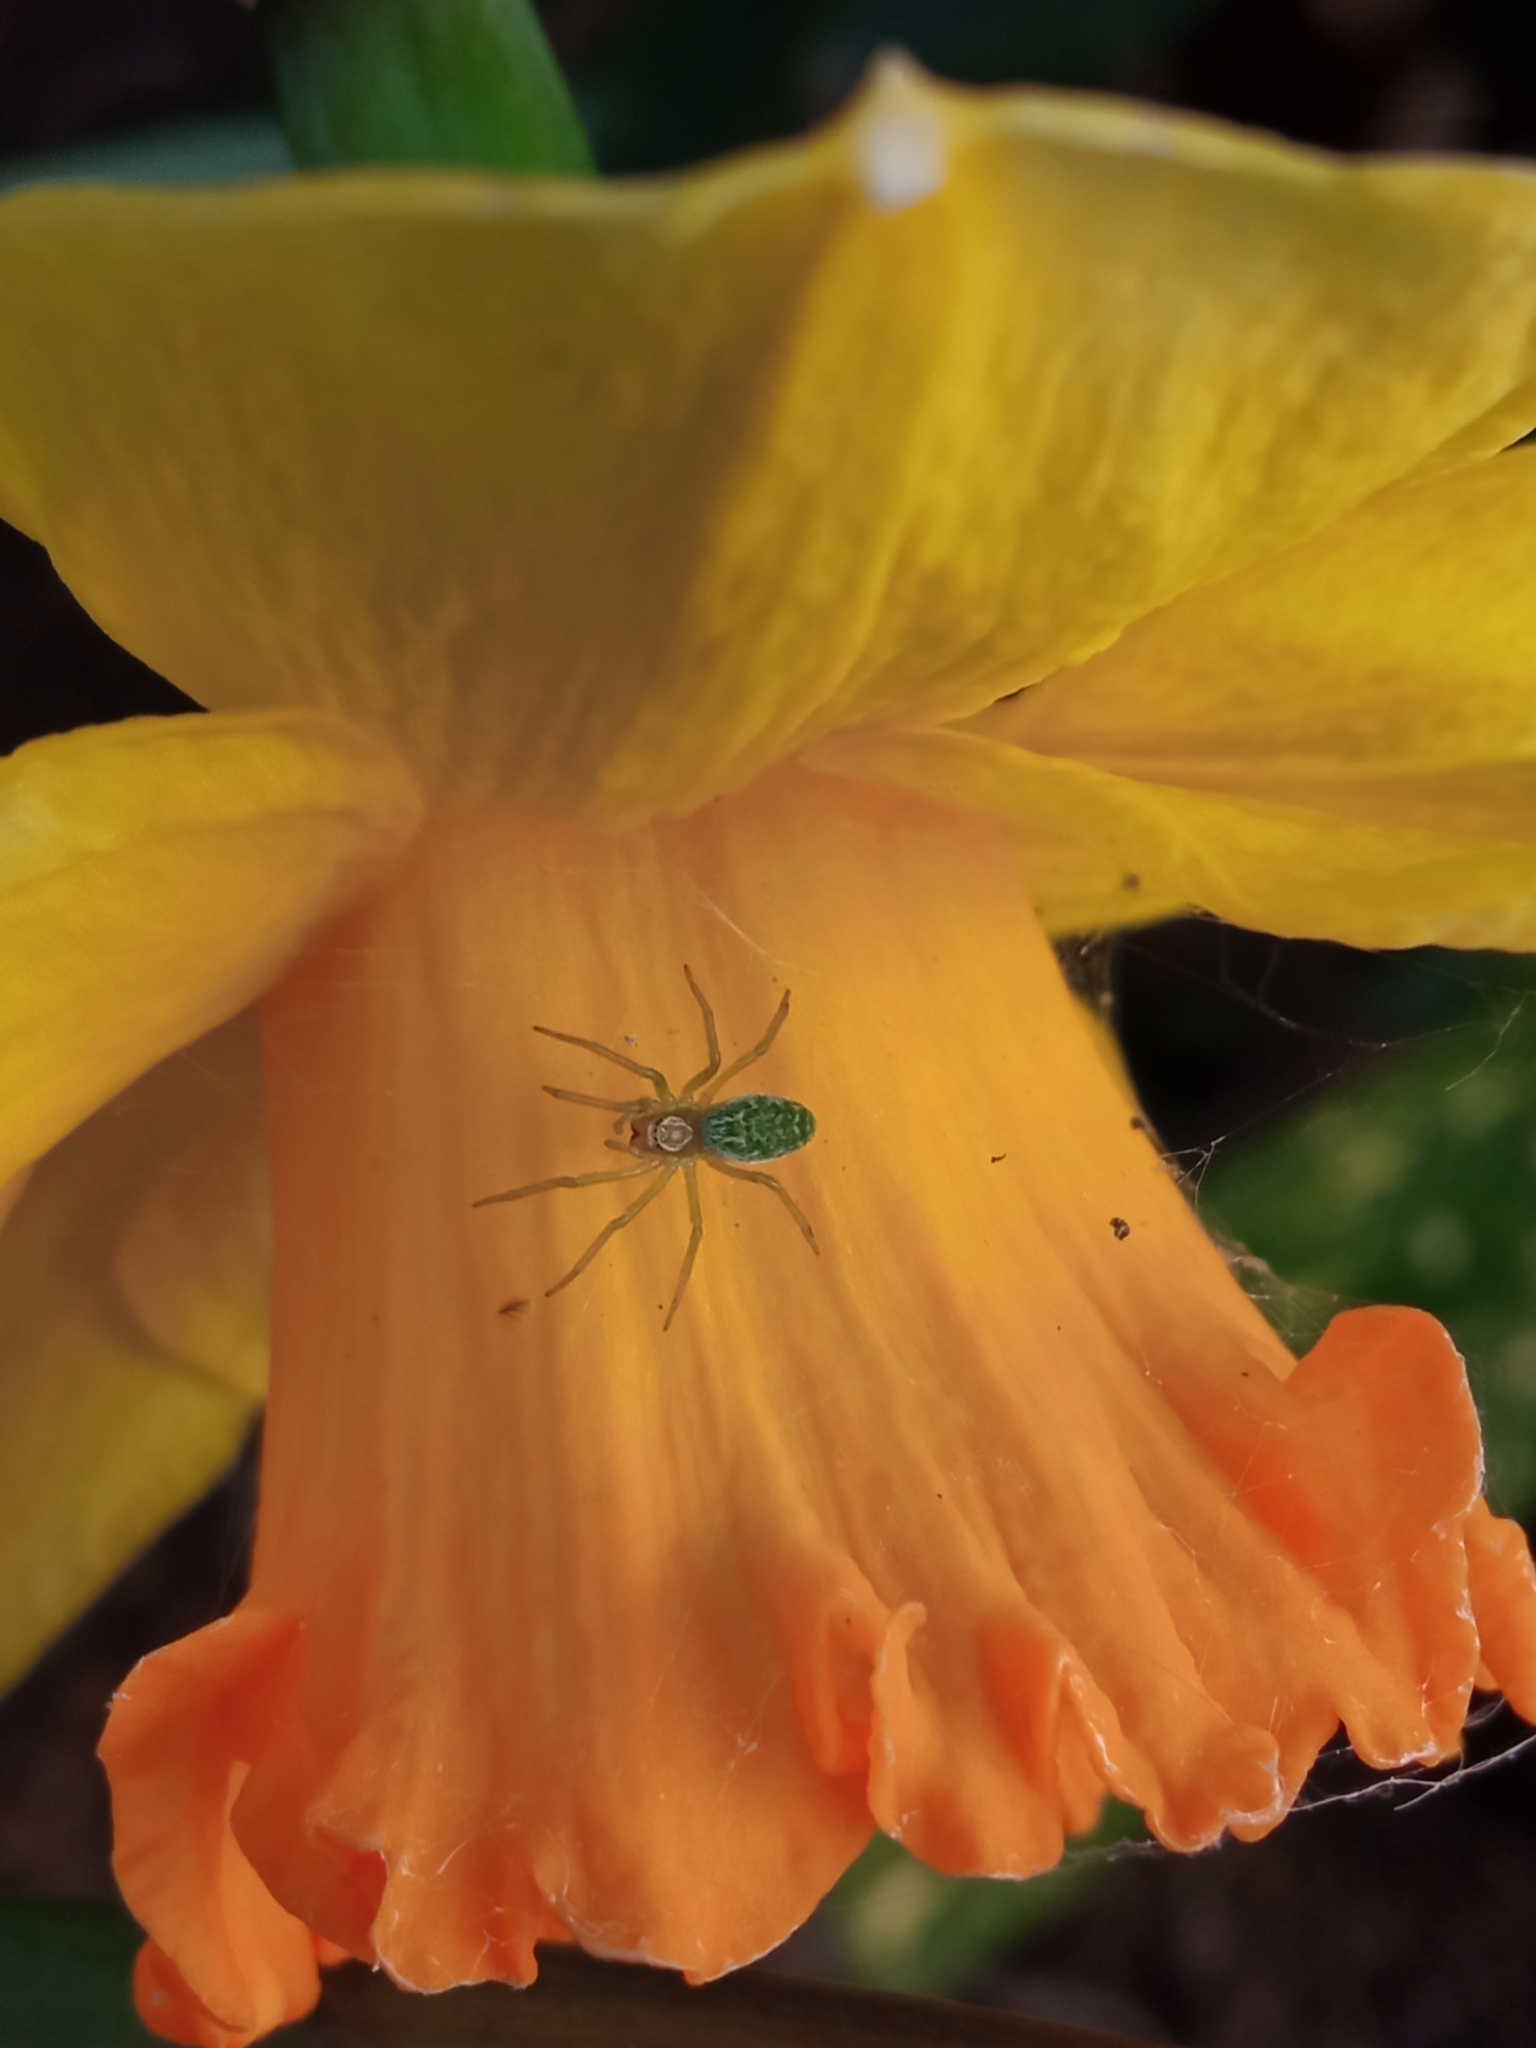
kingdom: Animalia
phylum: Arthropoda
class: Arachnida
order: Araneae
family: Dictynidae
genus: Nigma
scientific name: Nigma walckenaeri
